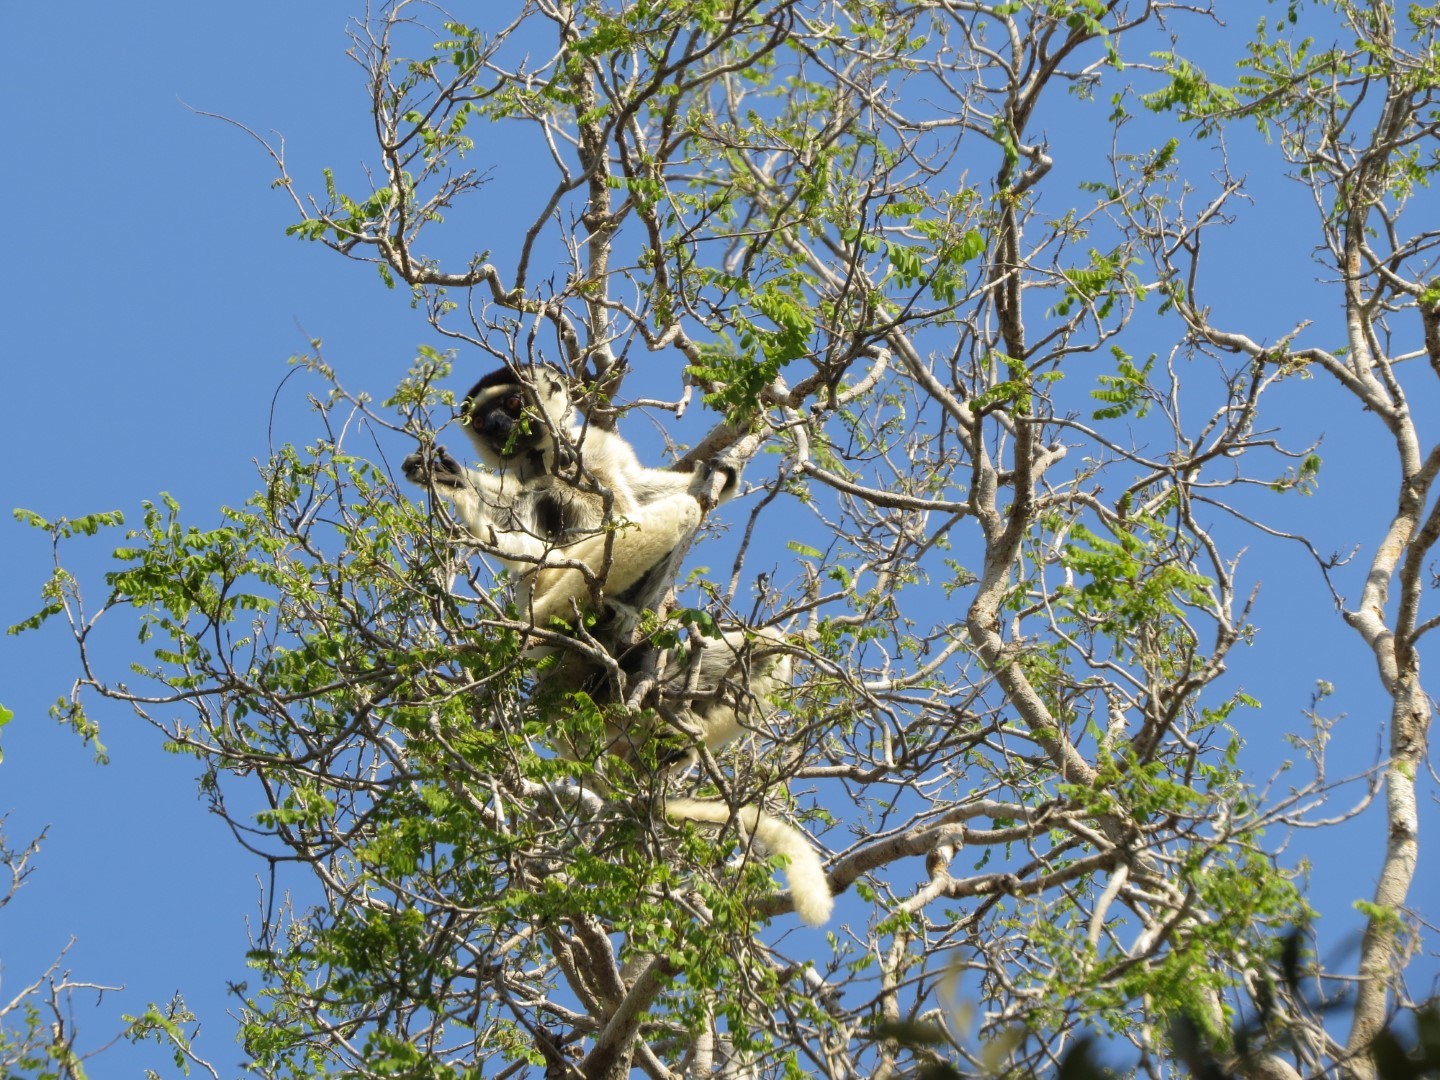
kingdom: Animalia
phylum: Chordata
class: Mammalia
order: Primates
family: Indriidae
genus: Propithecus
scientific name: Propithecus verreauxi
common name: Verreaux's sifaka
